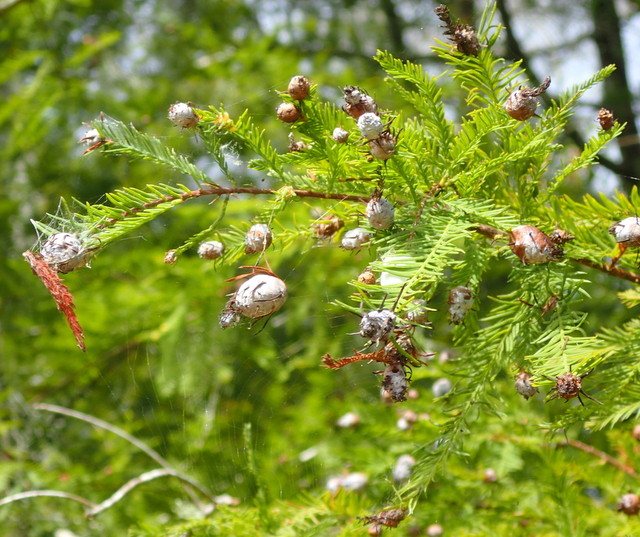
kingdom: Animalia
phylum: Arthropoda
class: Insecta
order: Diptera
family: Cecidomyiidae
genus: Taxodiomyia
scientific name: Taxodiomyia cupressiananassa
